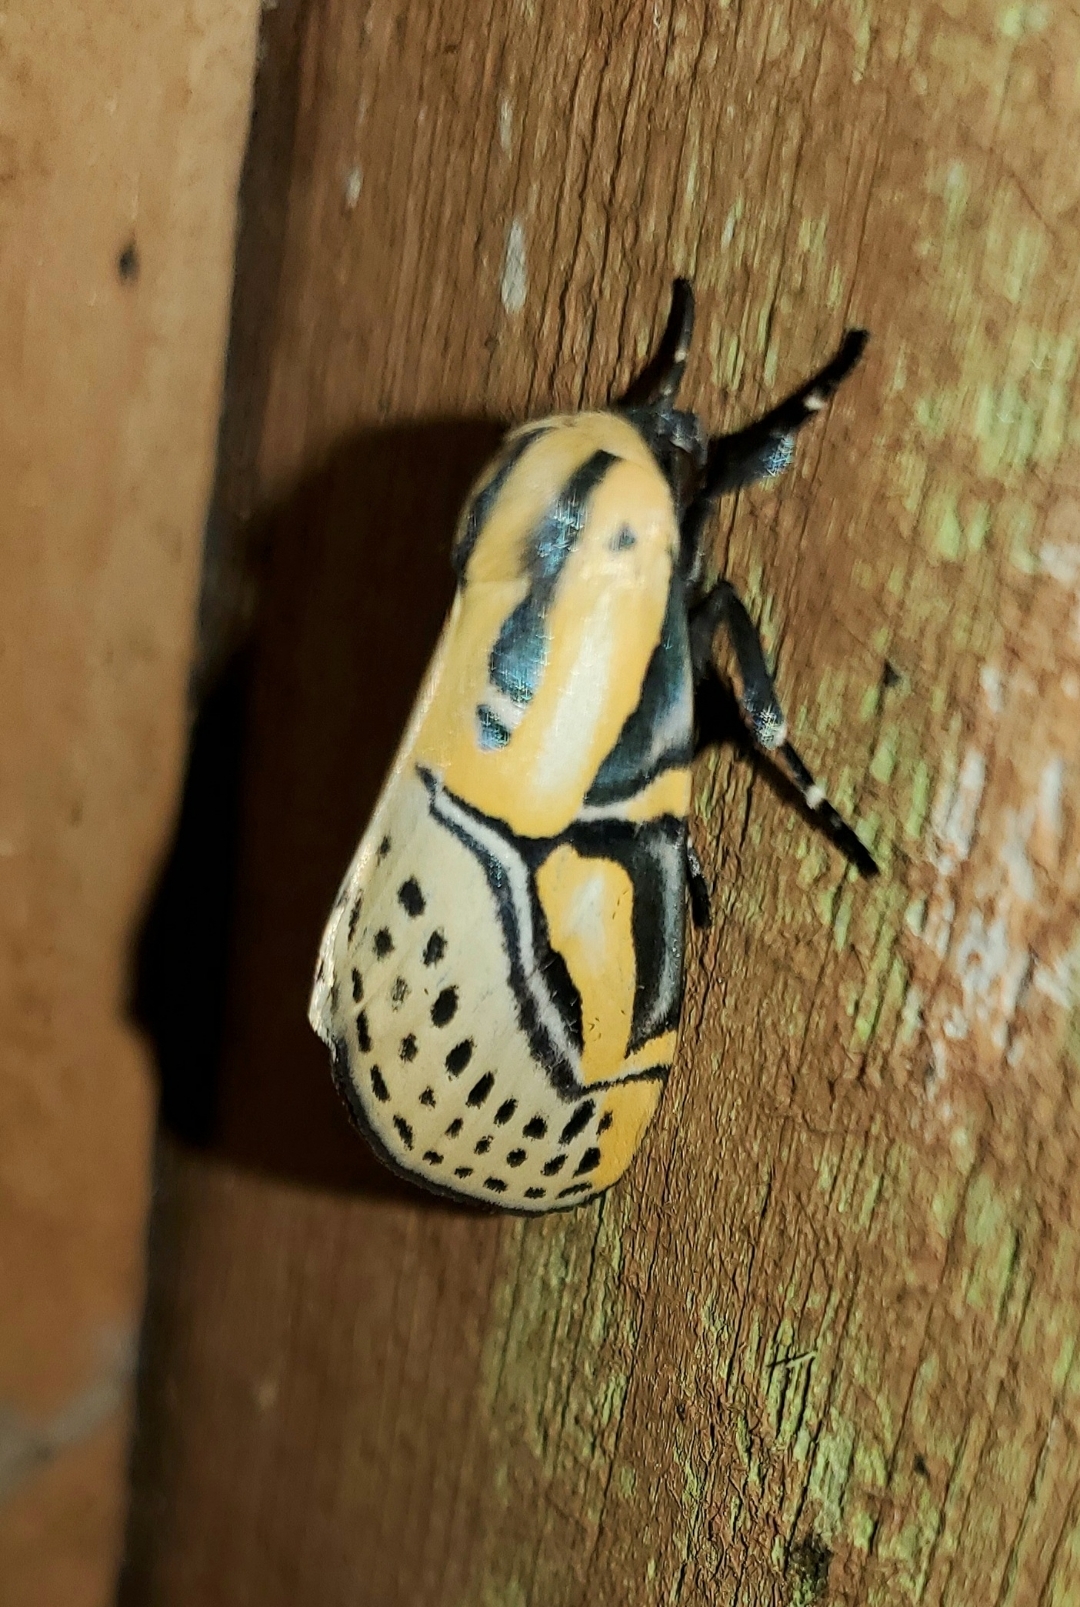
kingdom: Animalia
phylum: Arthropoda
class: Insecta
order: Lepidoptera
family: Erebidae
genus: Diphthera
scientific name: Diphthera festiva
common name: Hieroglyphic moth
